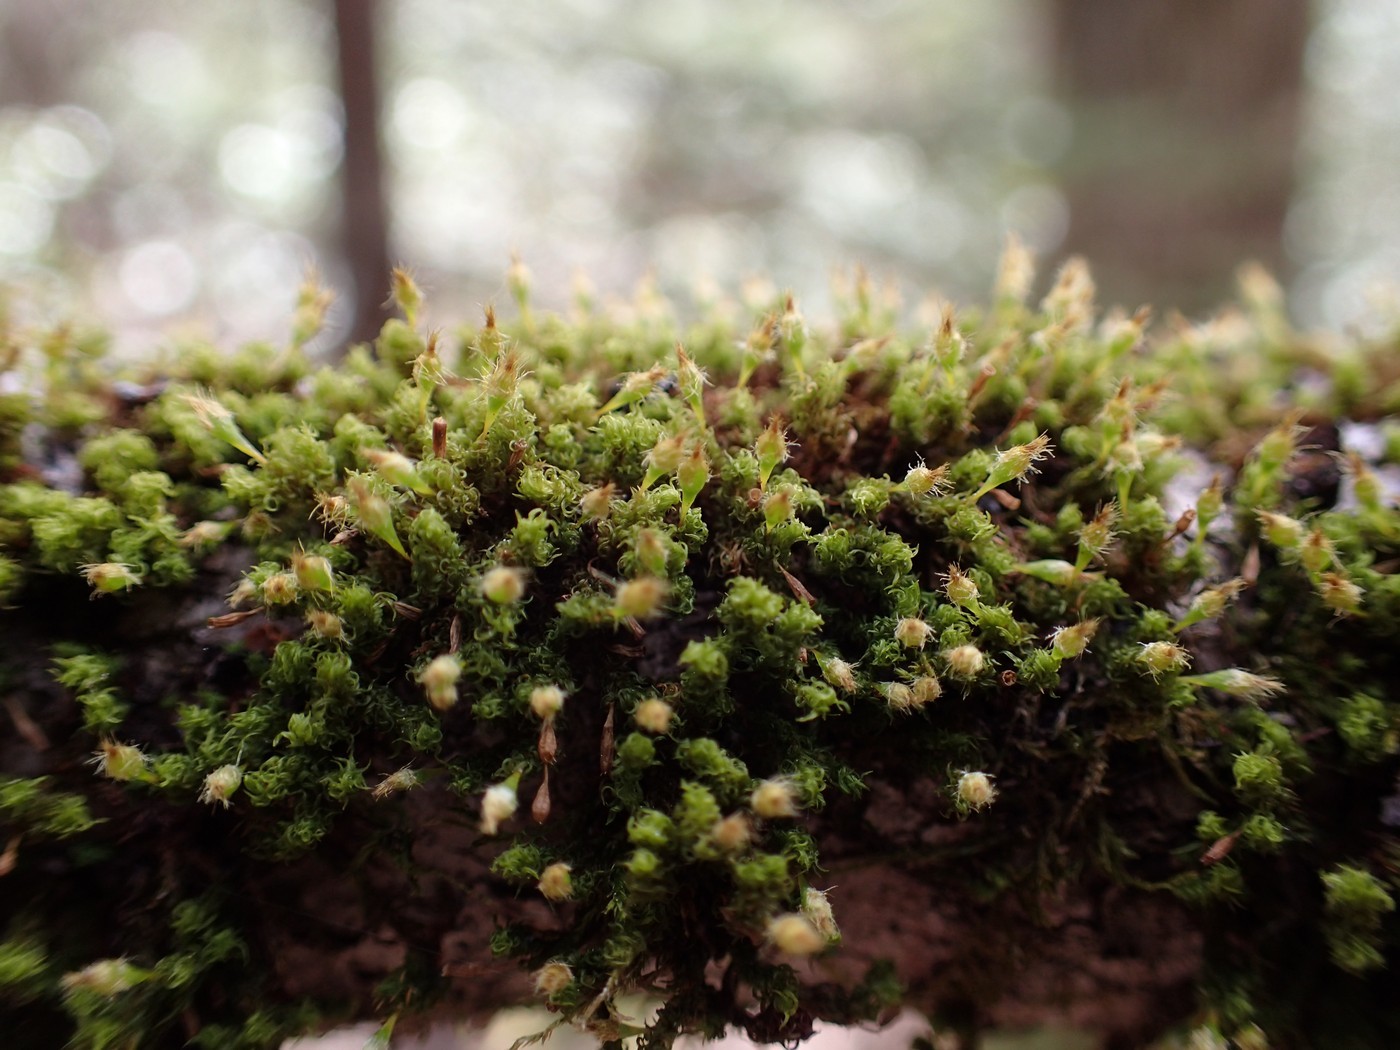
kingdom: Plantae
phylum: Bryophyta
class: Bryopsida
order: Orthotrichales
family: Orthotrichaceae
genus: Ulota
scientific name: Ulota crispa
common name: Crisped pincushion moss
